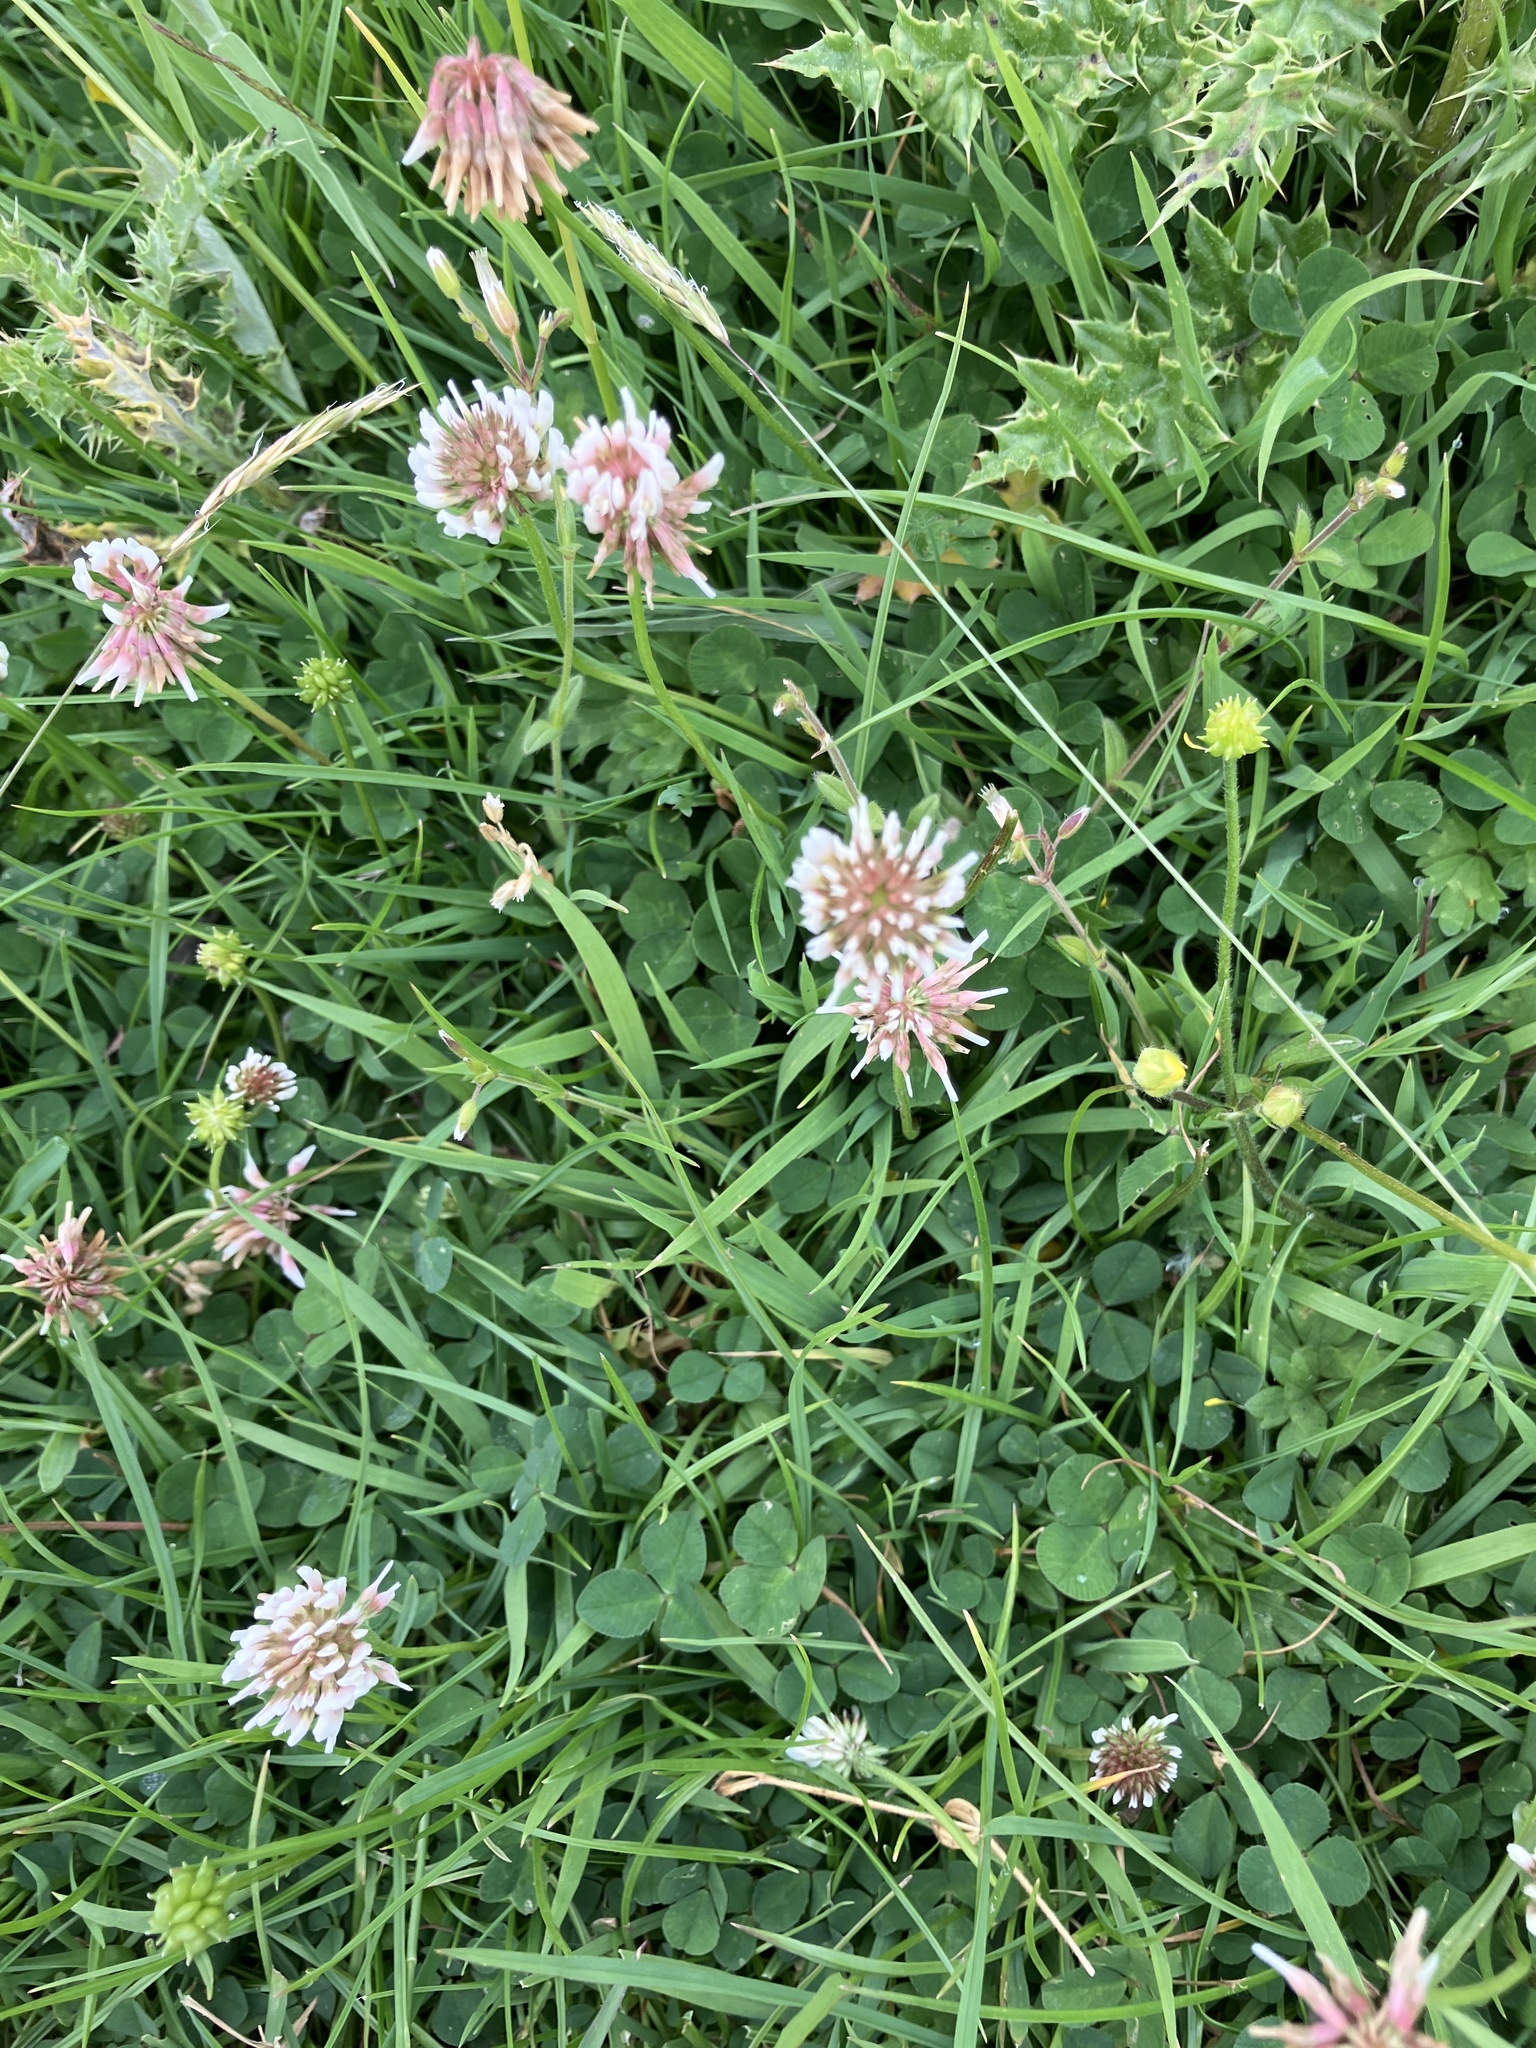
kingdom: Plantae
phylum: Tracheophyta
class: Magnoliopsida
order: Fabales
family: Fabaceae
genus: Trifolium
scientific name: Trifolium repens
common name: White clover
